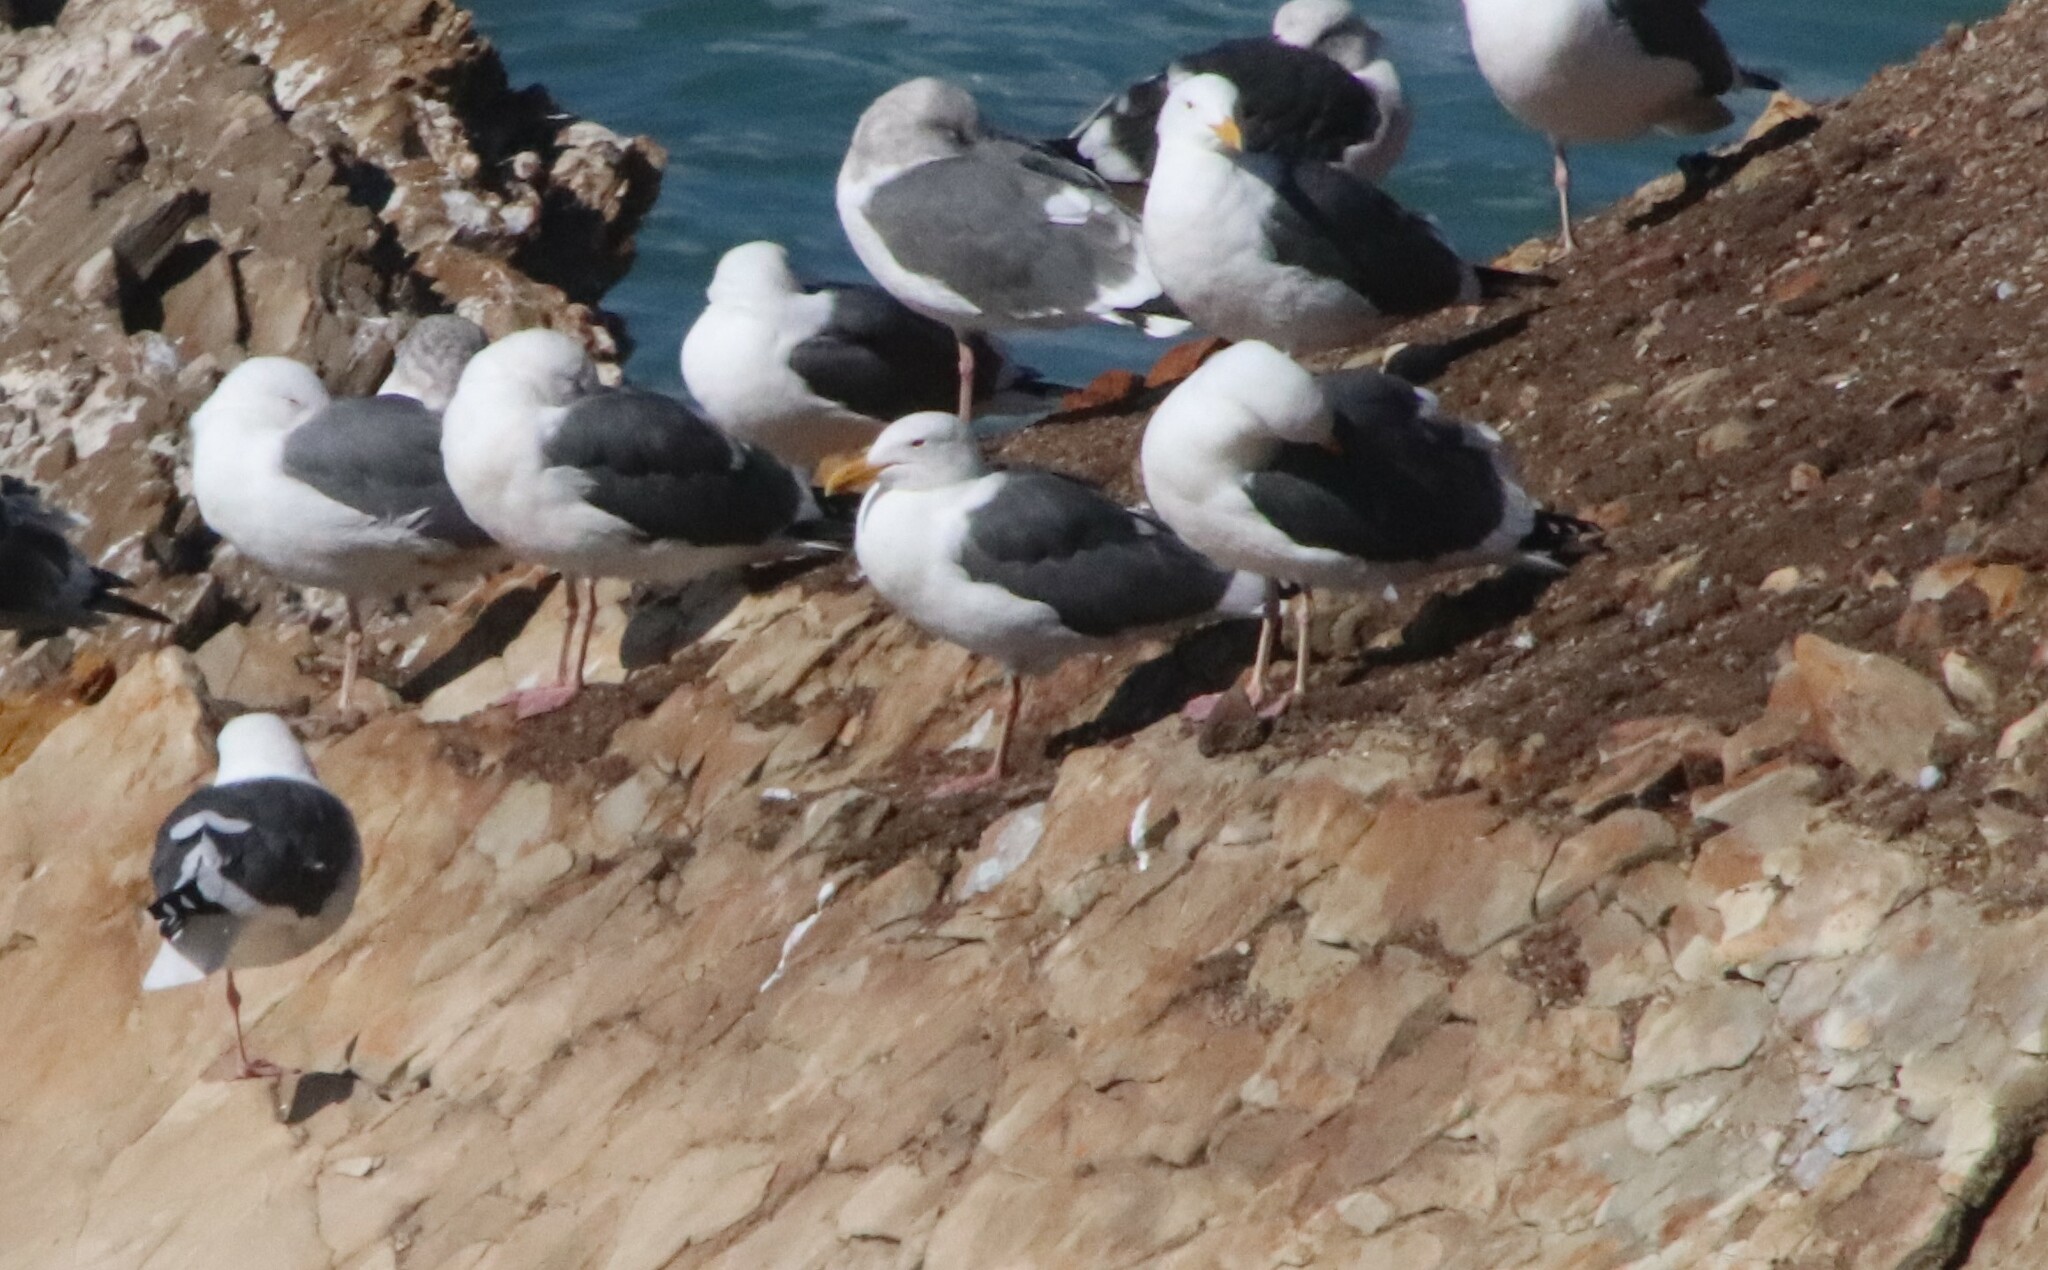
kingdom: Animalia
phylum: Chordata
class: Aves
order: Charadriiformes
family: Laridae
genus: Larus
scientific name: Larus occidentalis
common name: Western gull
